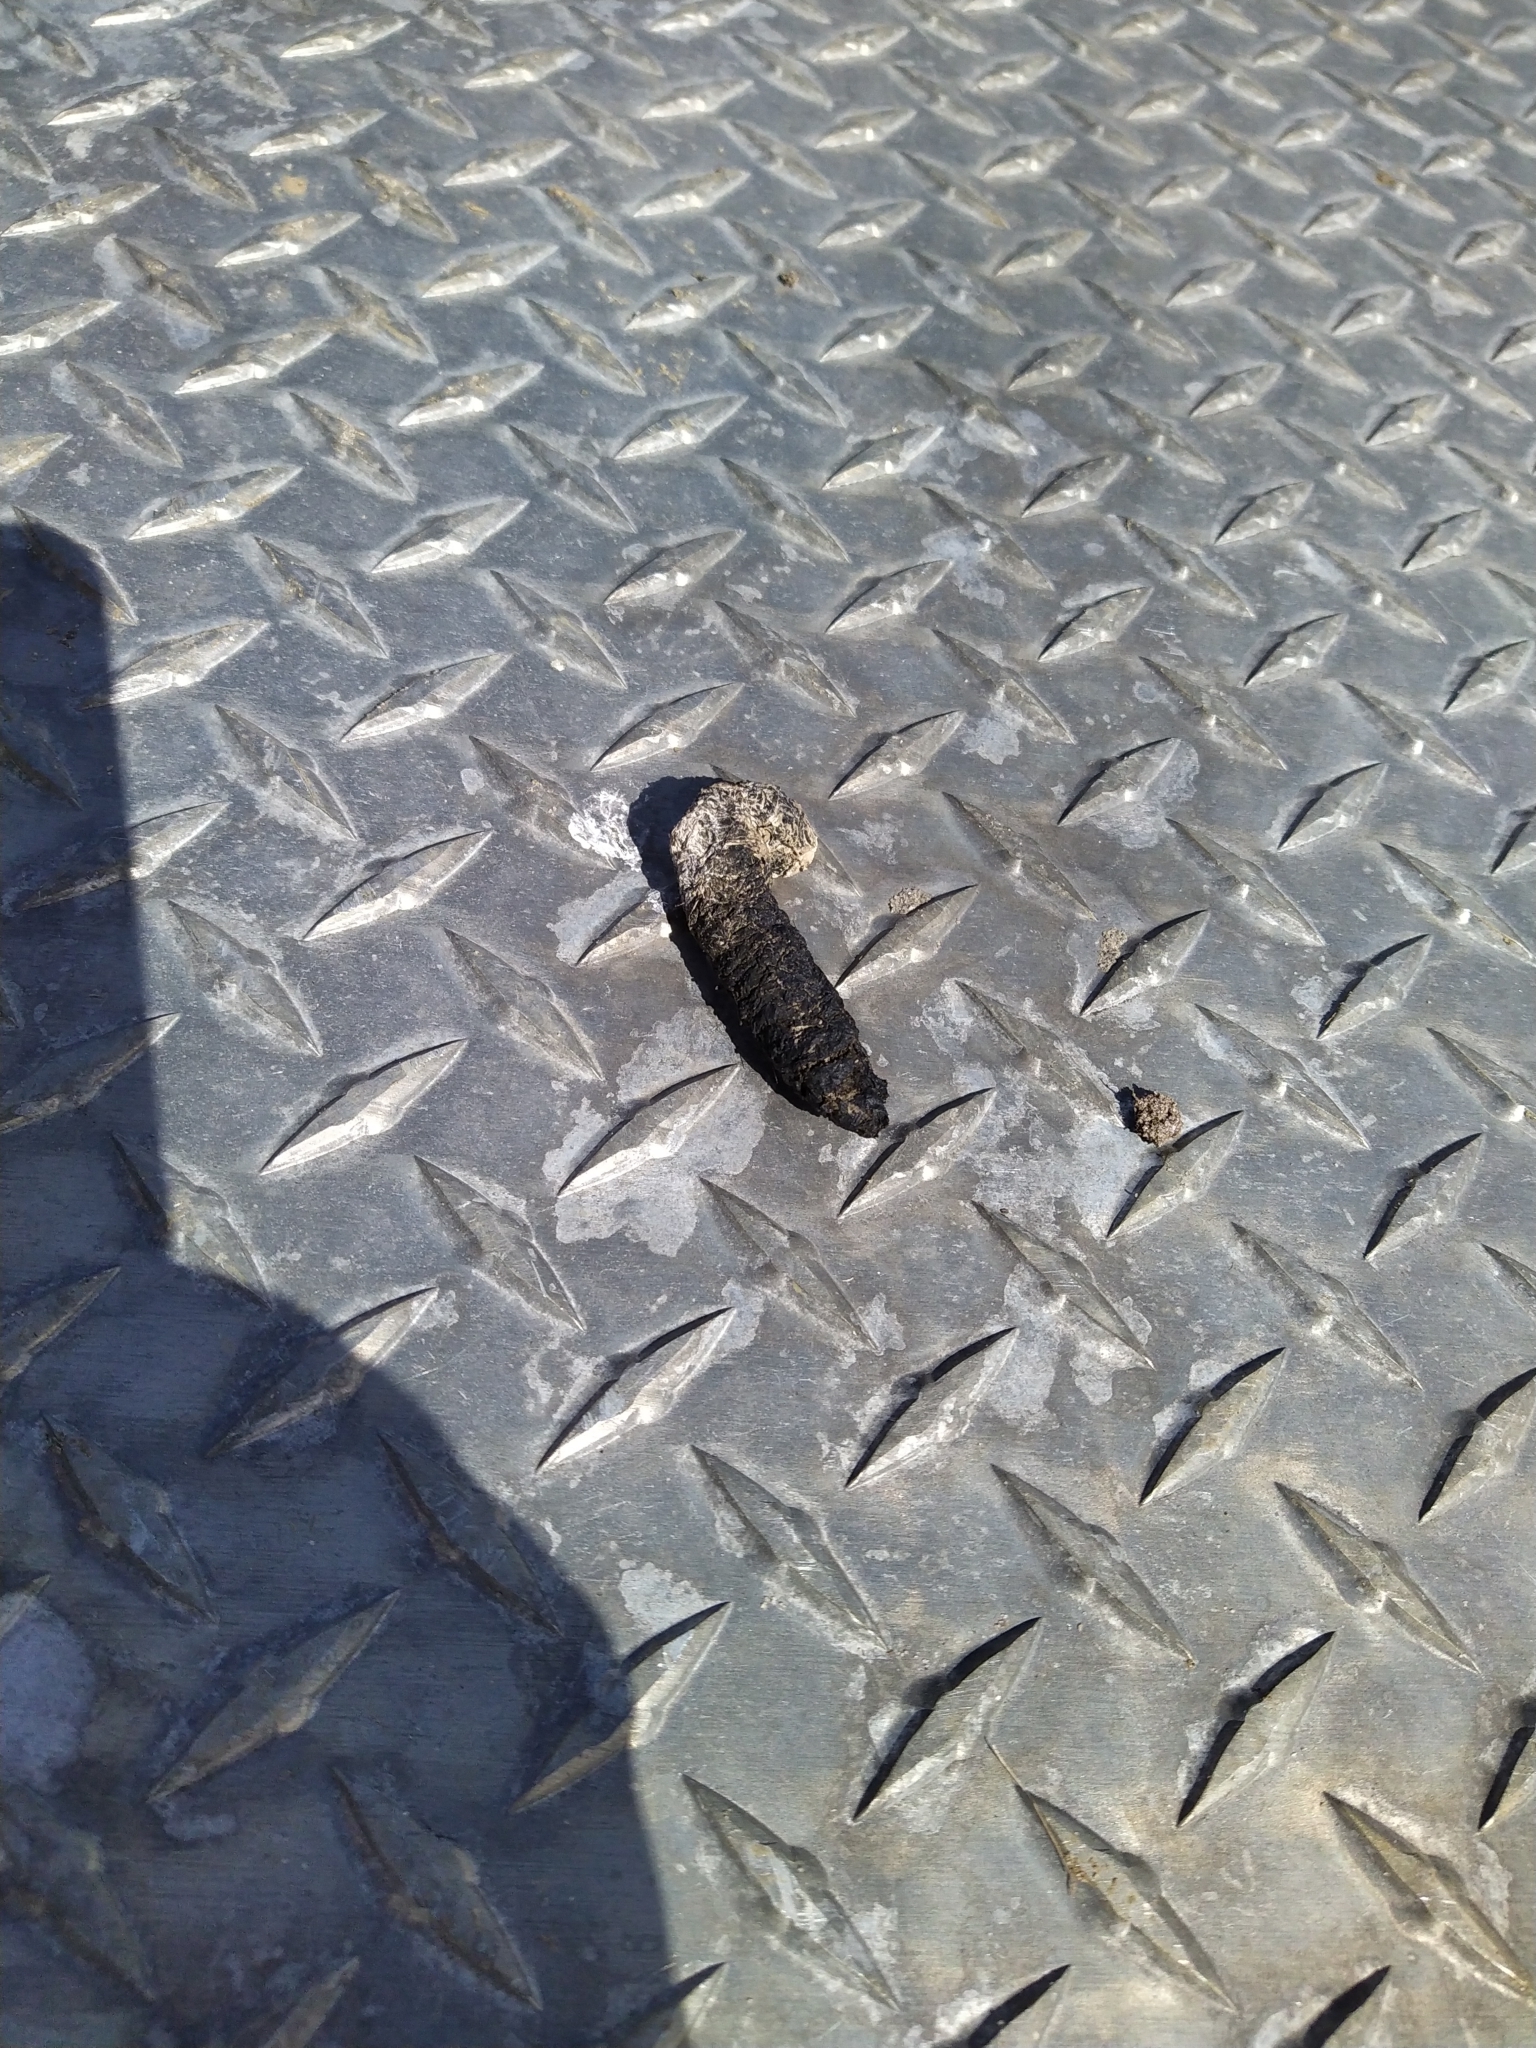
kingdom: Animalia
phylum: Chordata
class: Aves
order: Anseriformes
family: Anatidae
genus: Branta
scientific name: Branta canadensis
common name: Canada goose
